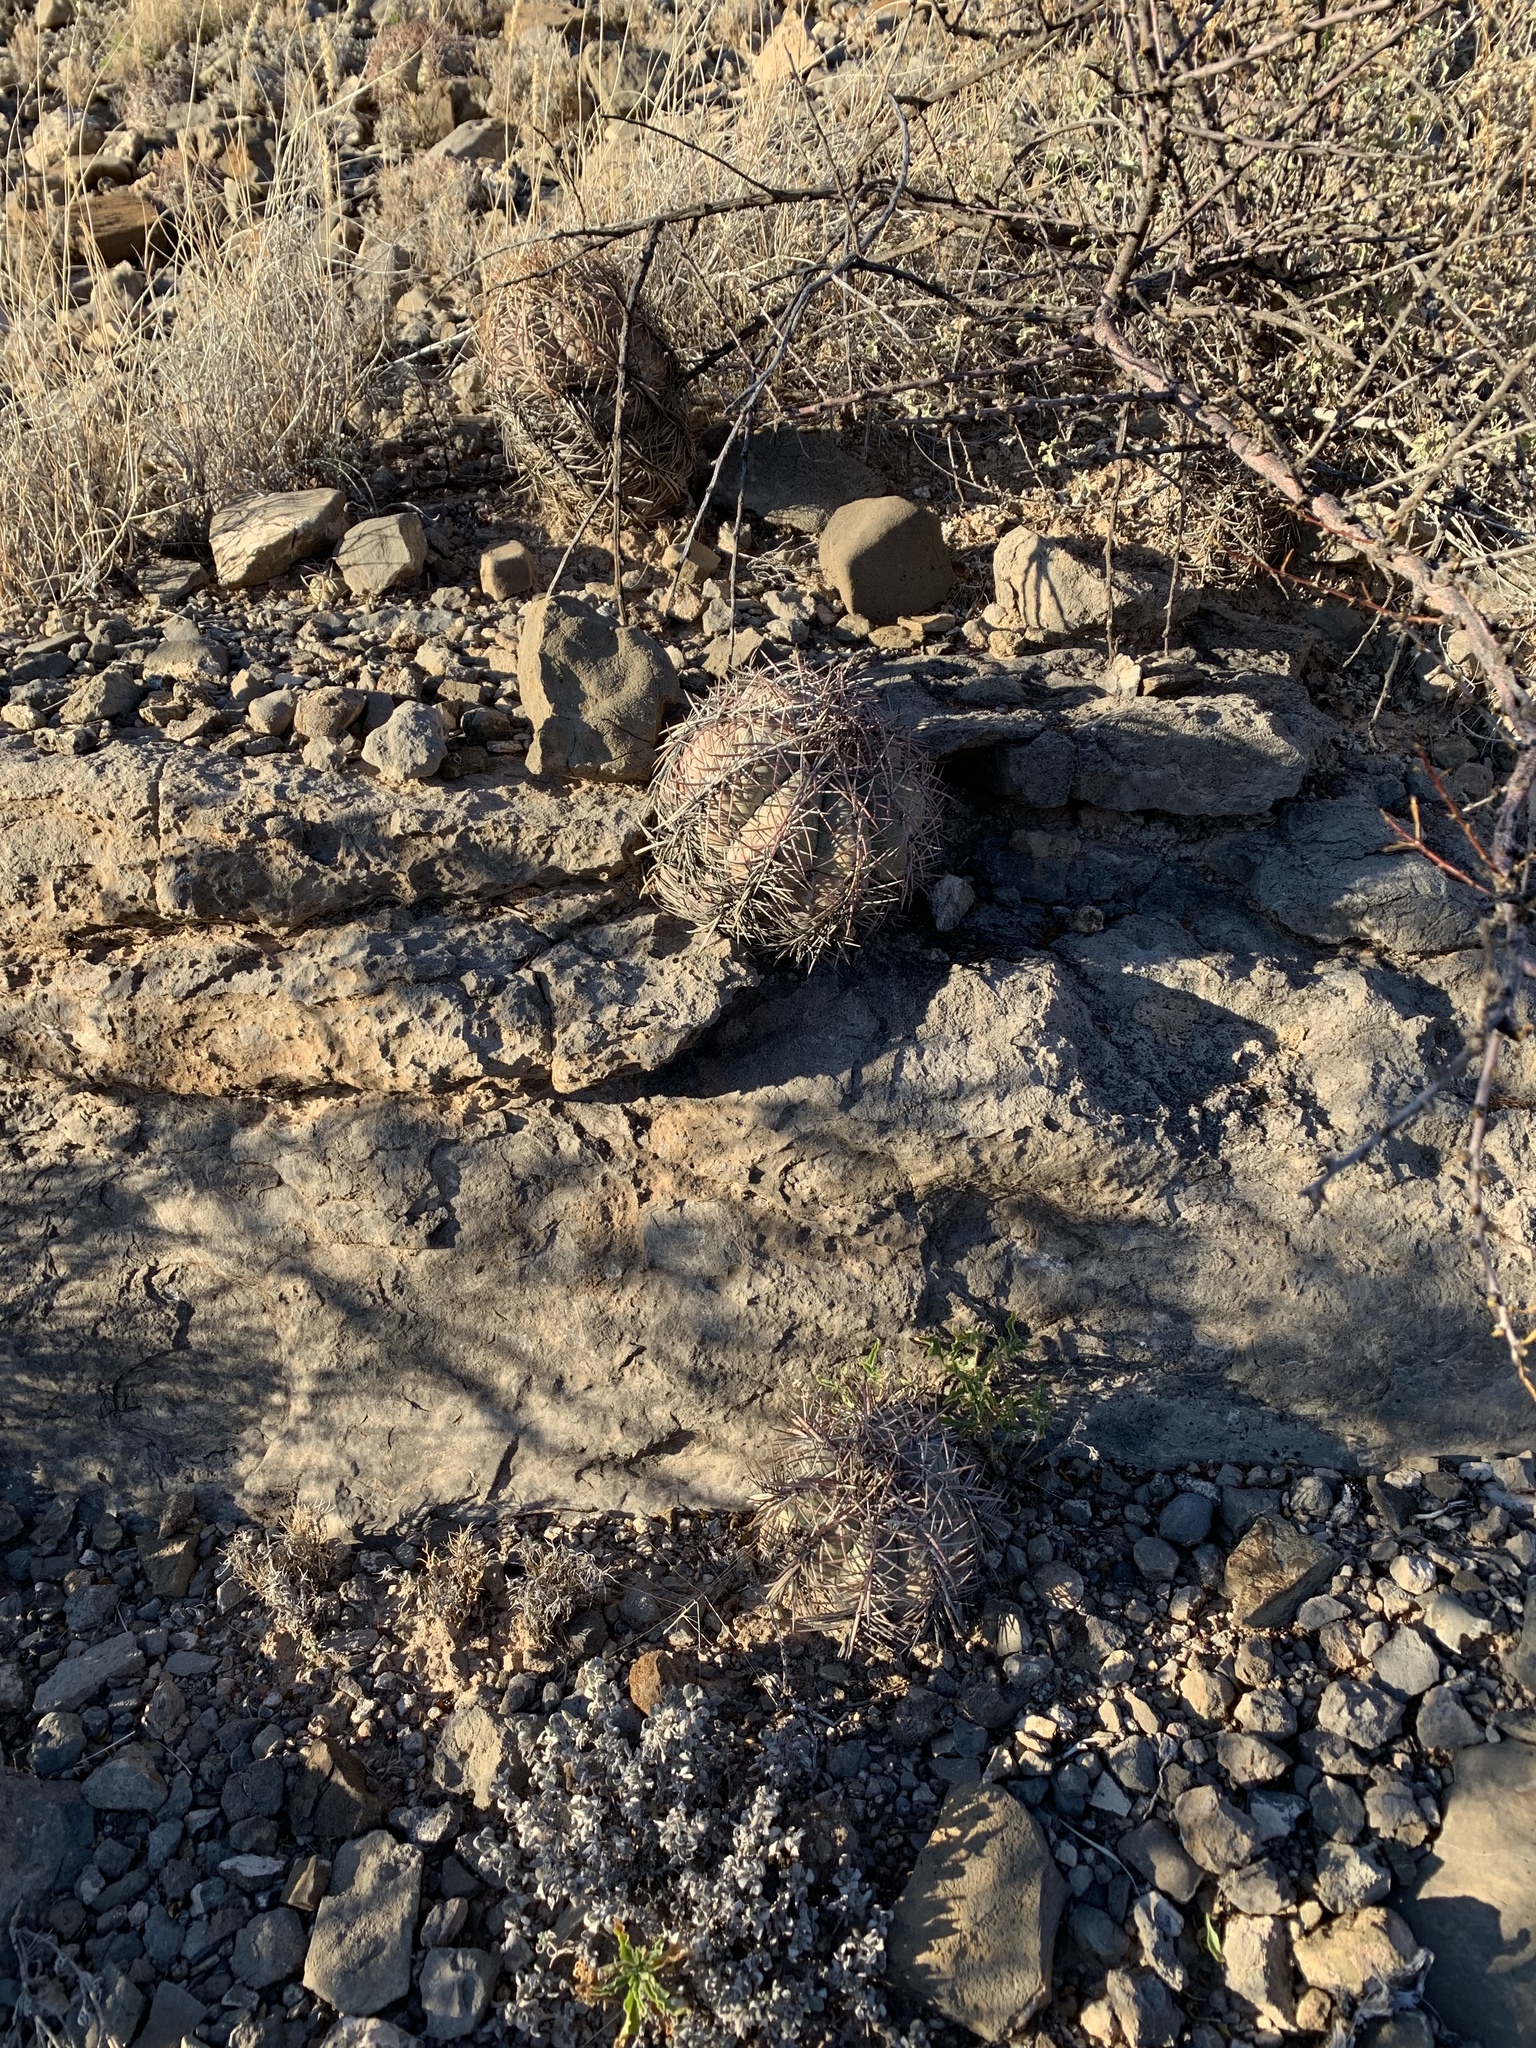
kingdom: Plantae
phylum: Tracheophyta
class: Magnoliopsida
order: Caryophyllales
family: Cactaceae
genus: Echinocactus
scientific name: Echinocactus horizonthalonius
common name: Devilshead
